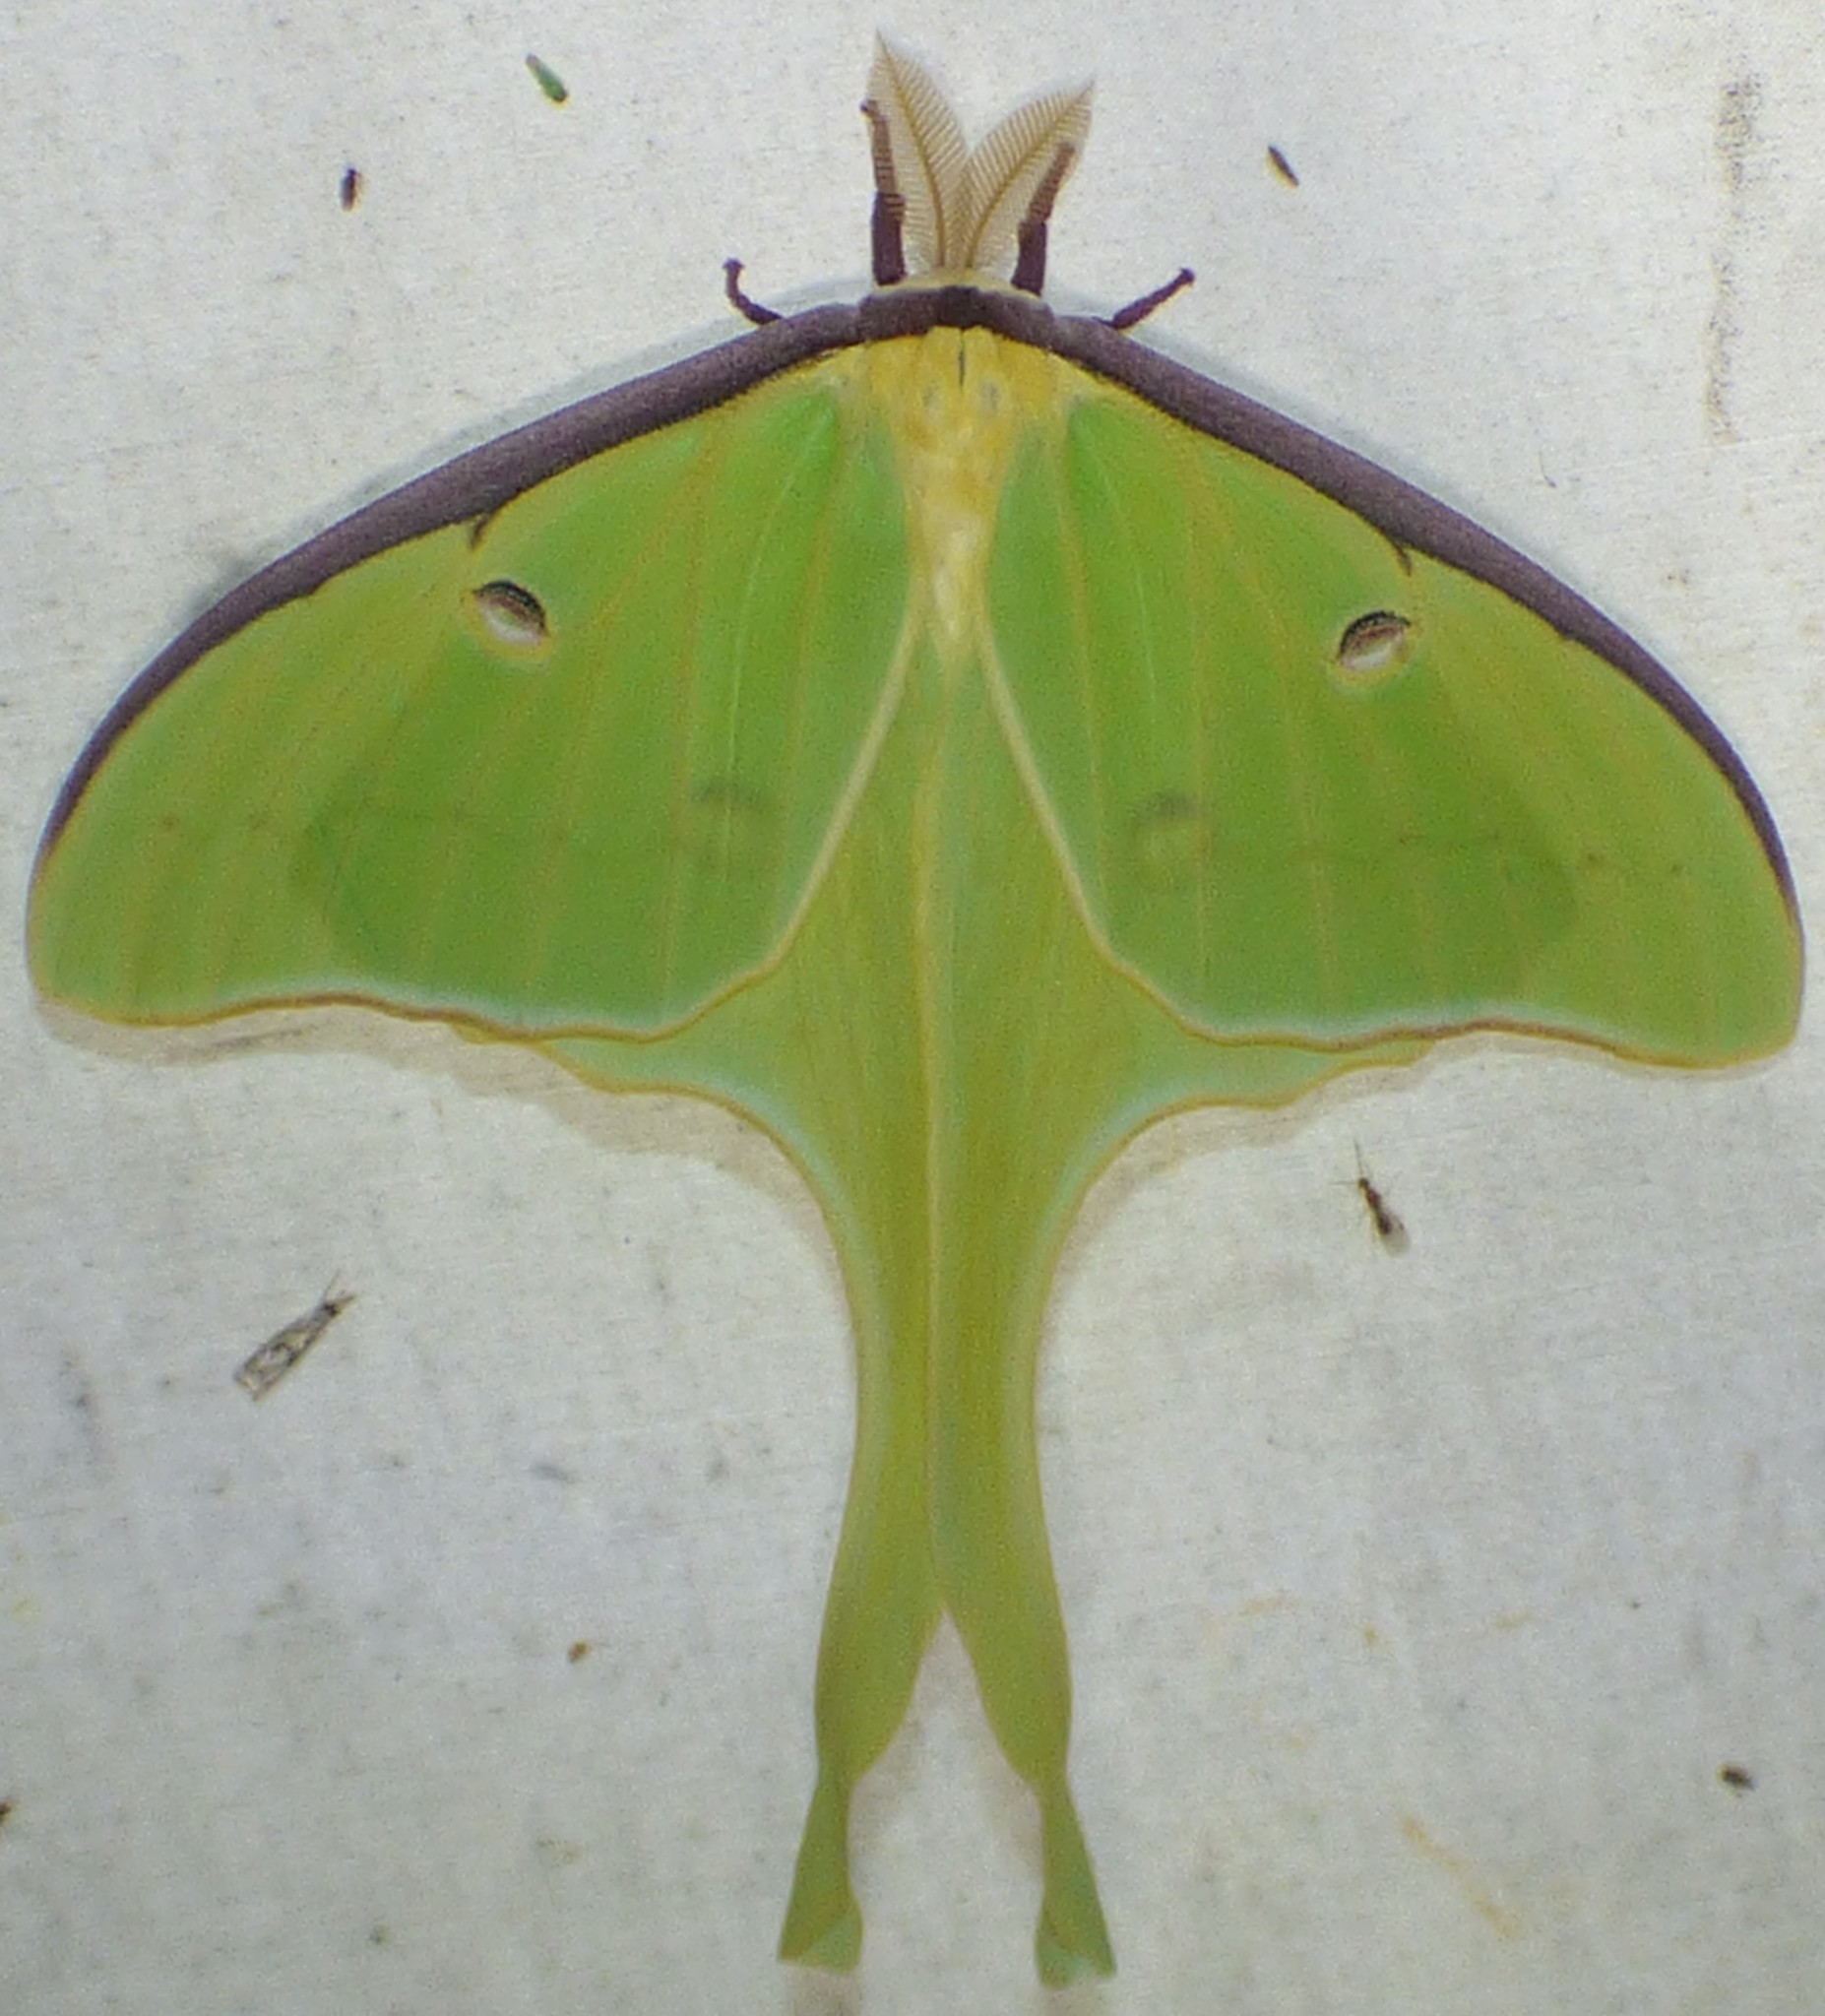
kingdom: Animalia
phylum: Arthropoda
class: Insecta
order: Lepidoptera
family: Saturniidae
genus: Actias
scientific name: Actias luna
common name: Luna moth
